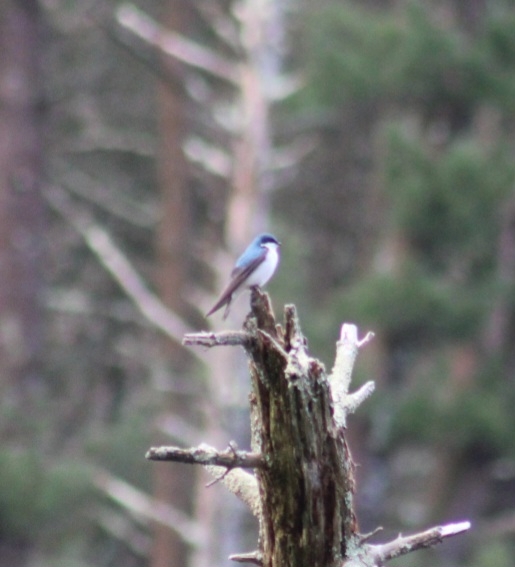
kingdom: Animalia
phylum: Chordata
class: Aves
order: Passeriformes
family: Hirundinidae
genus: Tachycineta
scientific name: Tachycineta bicolor
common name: Tree swallow
